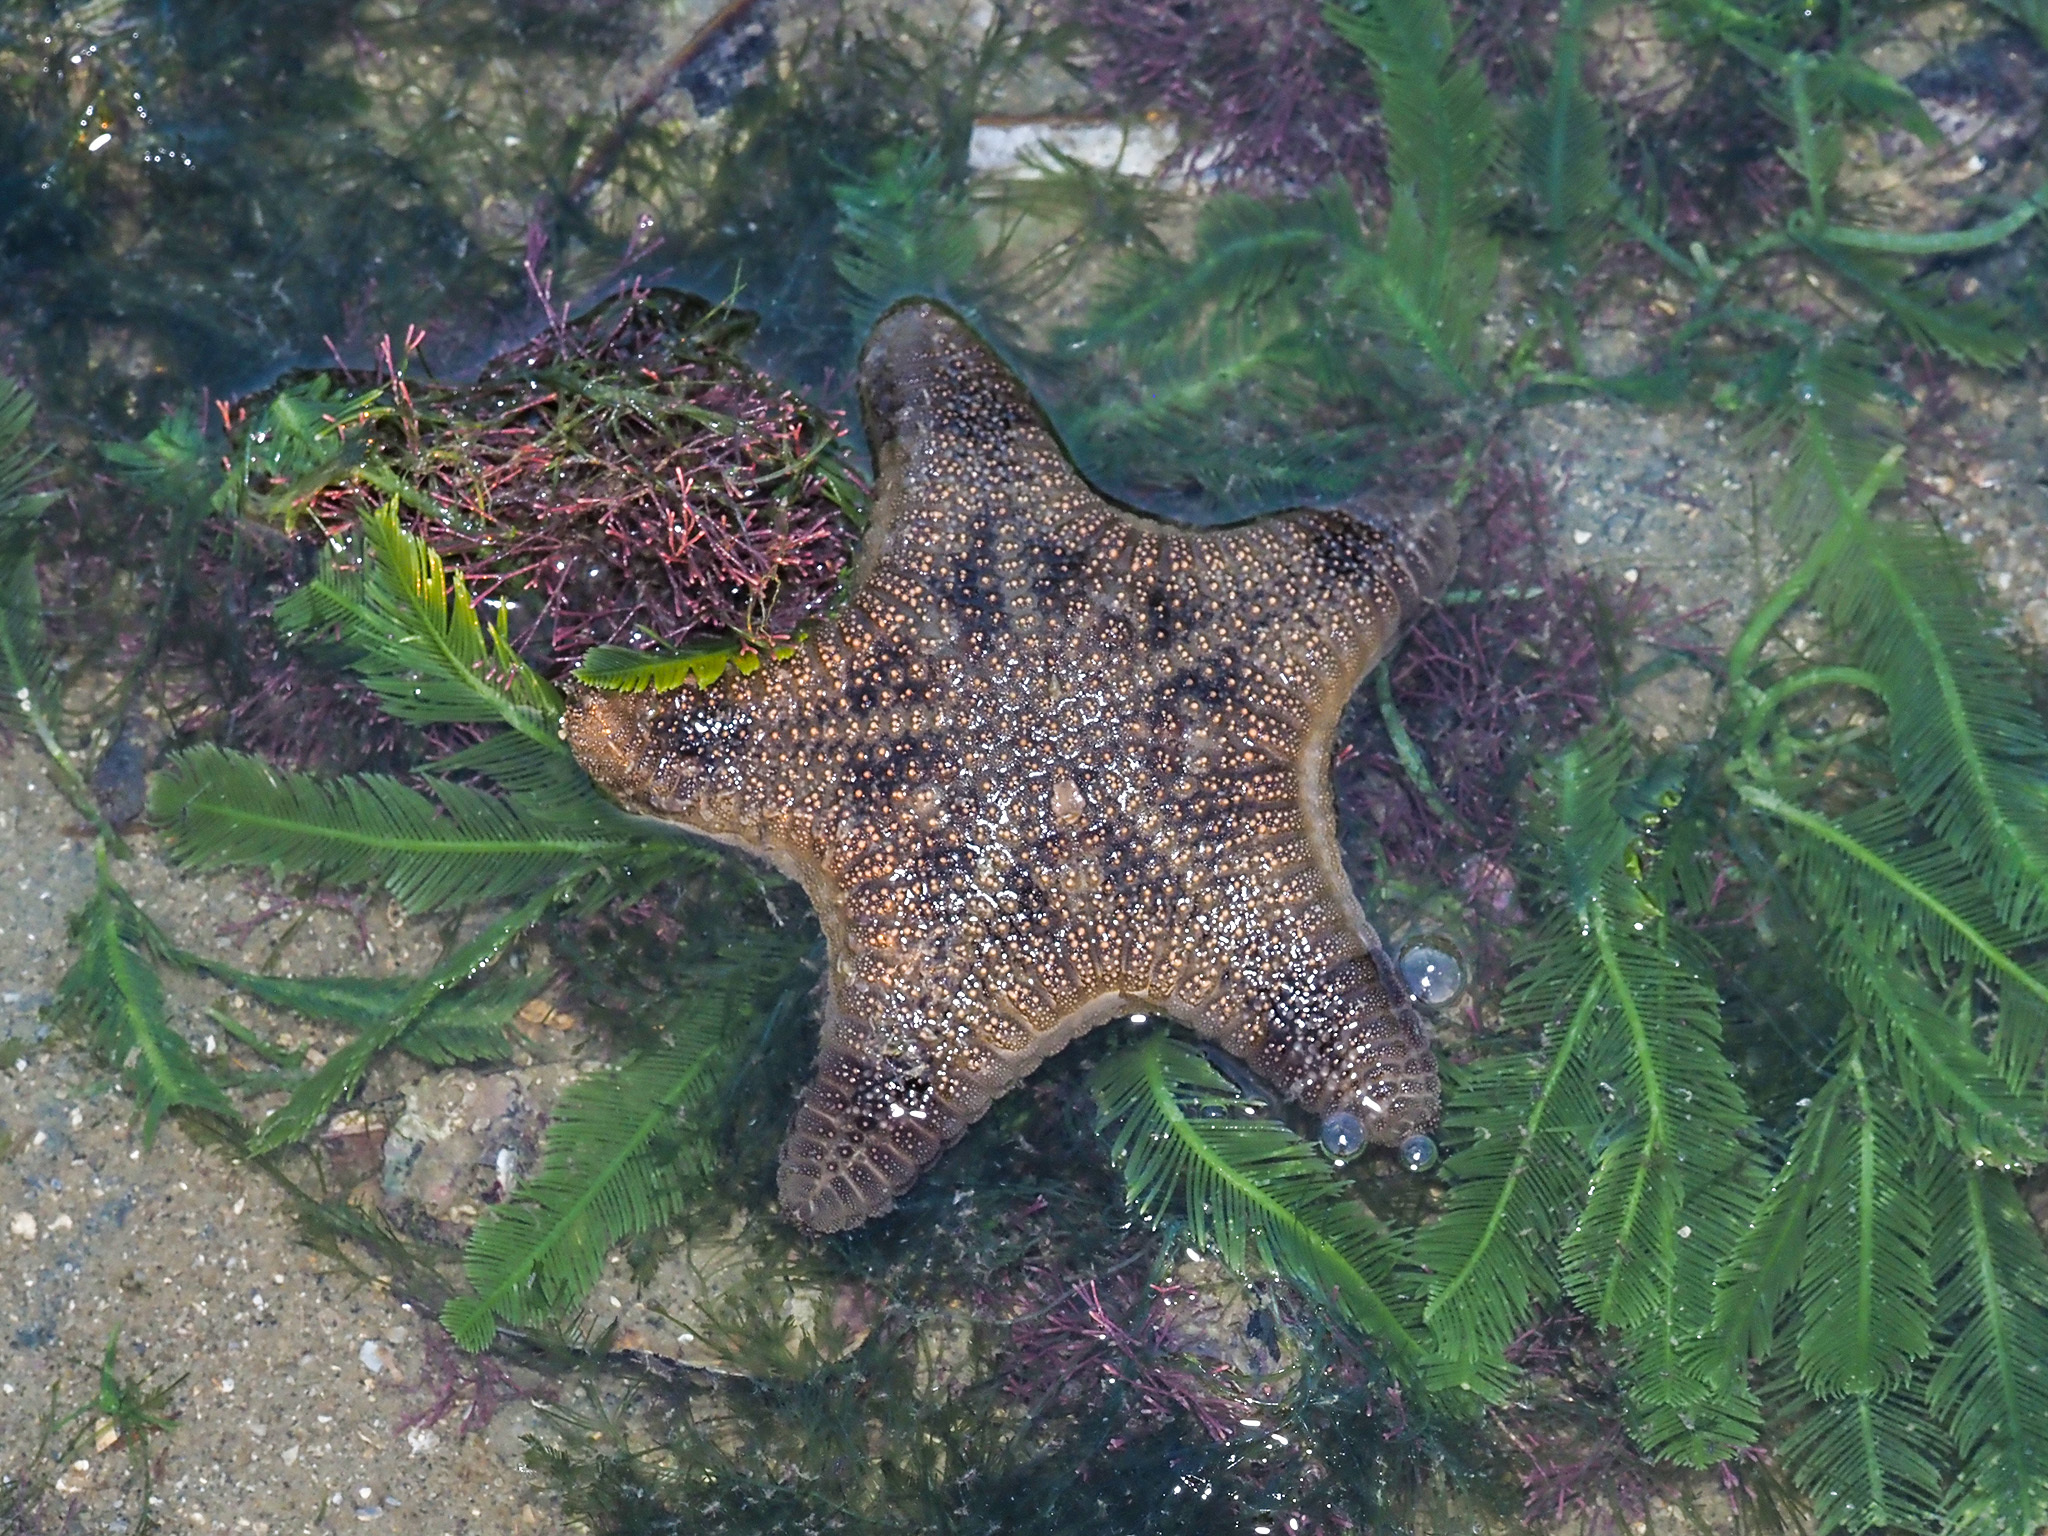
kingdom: Animalia
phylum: Echinodermata
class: Asteroidea
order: Valvatida
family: Goniasteridae
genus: Goniodiscaster
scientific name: Goniodiscaster scaber
